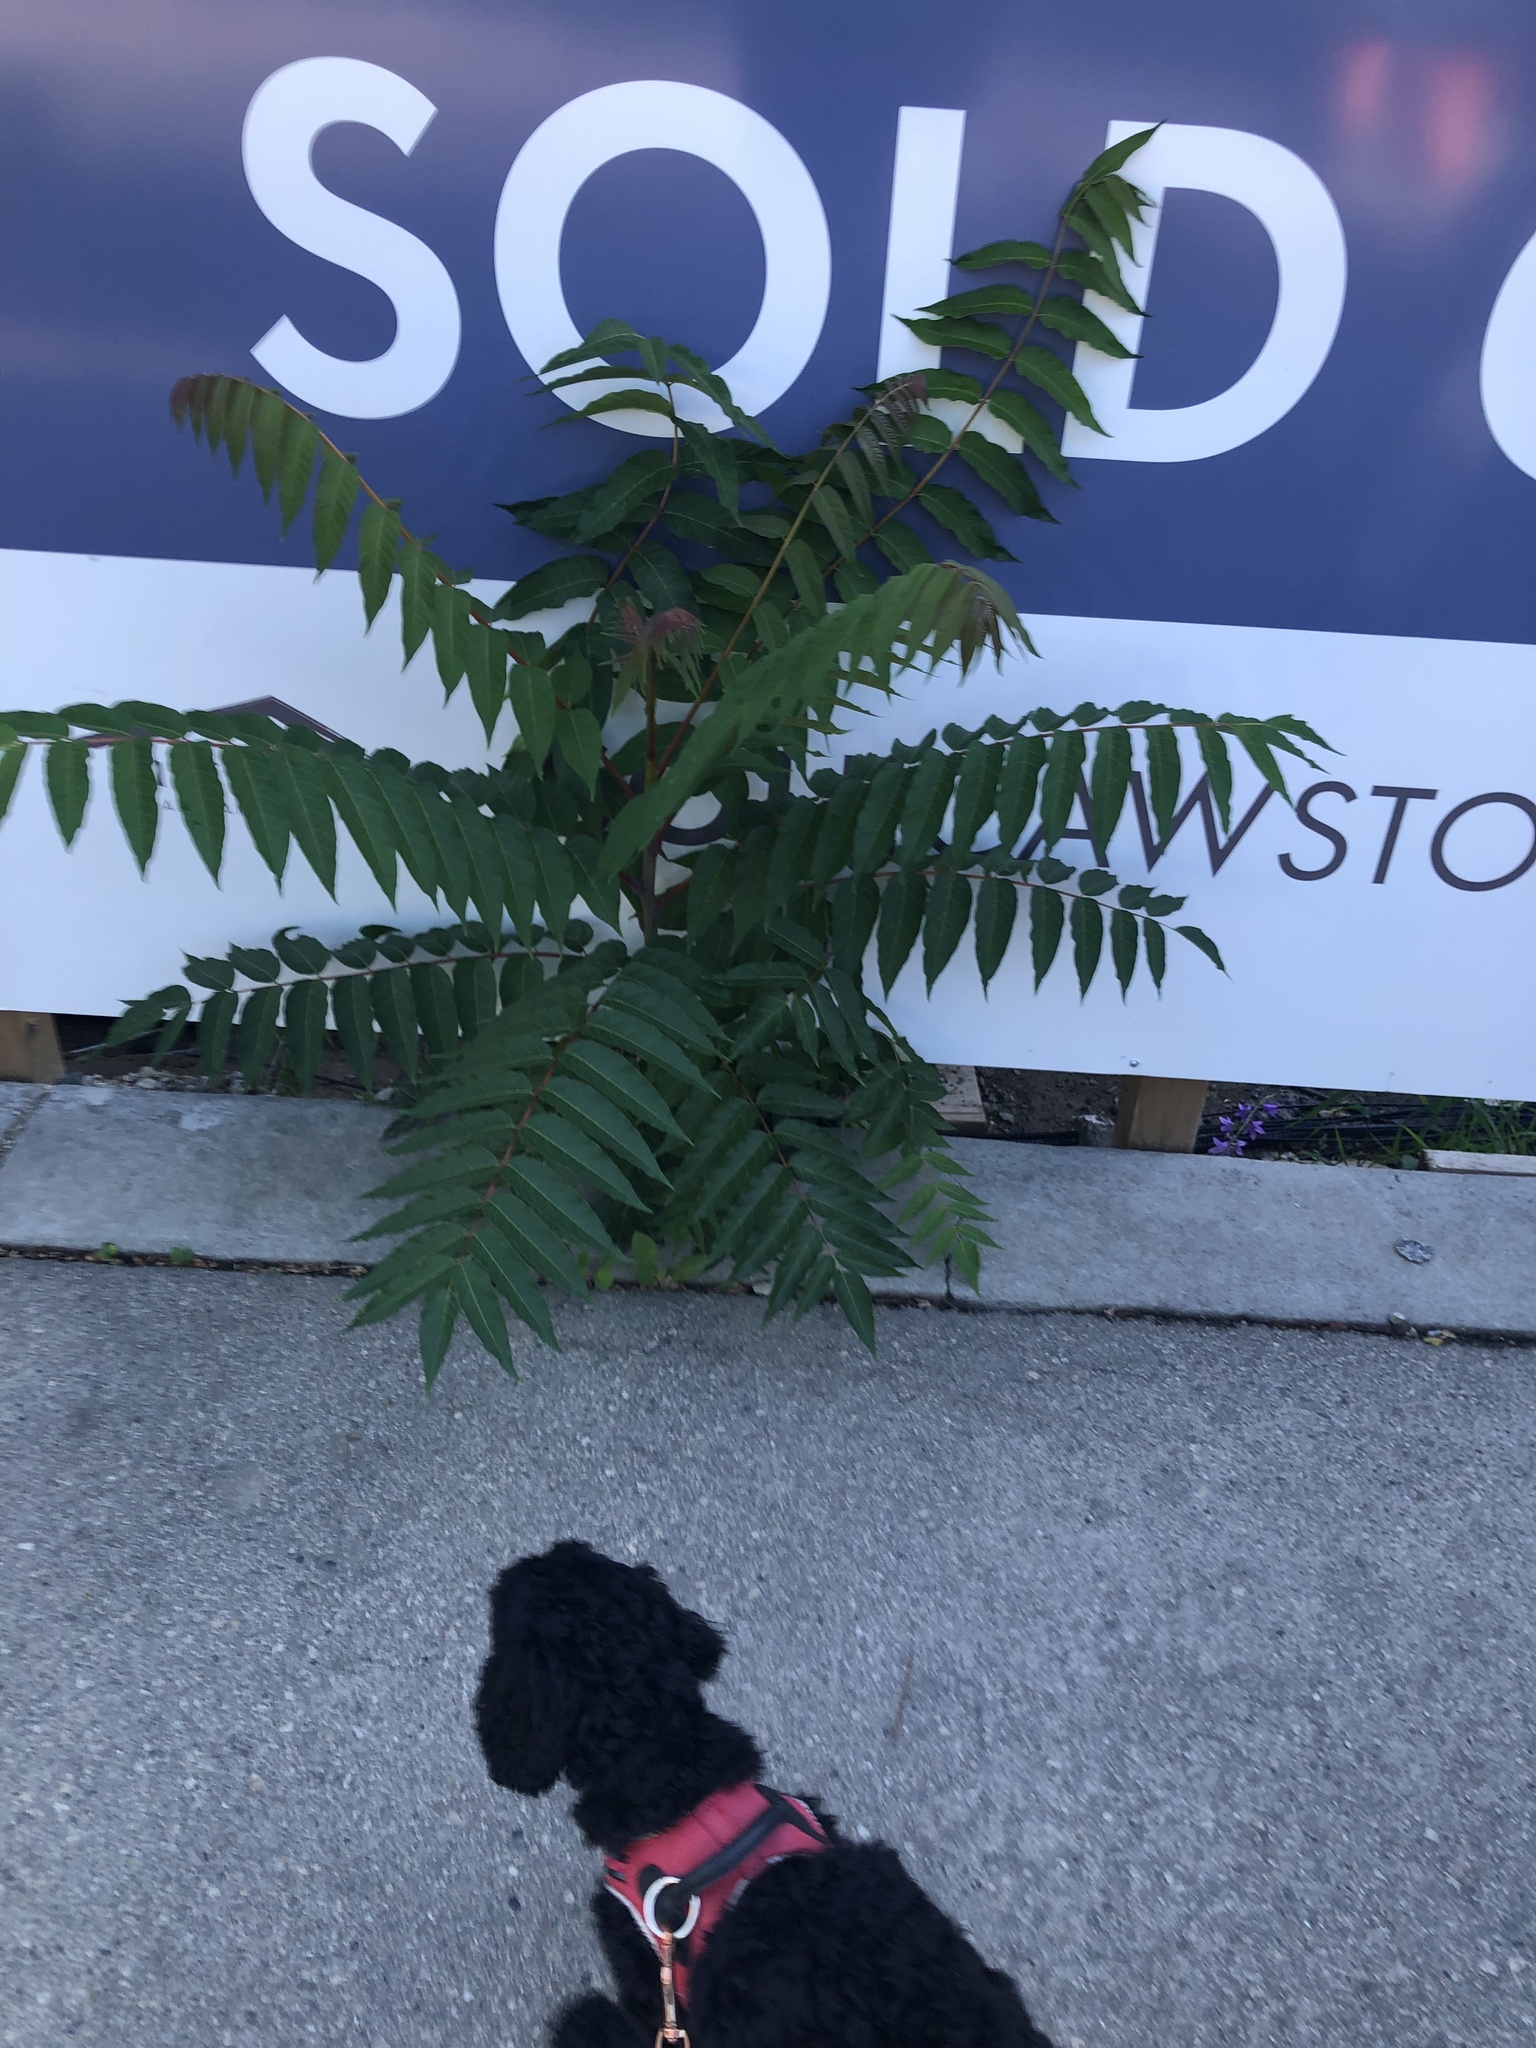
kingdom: Plantae
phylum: Tracheophyta
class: Magnoliopsida
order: Sapindales
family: Simaroubaceae
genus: Ailanthus
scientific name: Ailanthus altissima
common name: Tree-of-heaven
